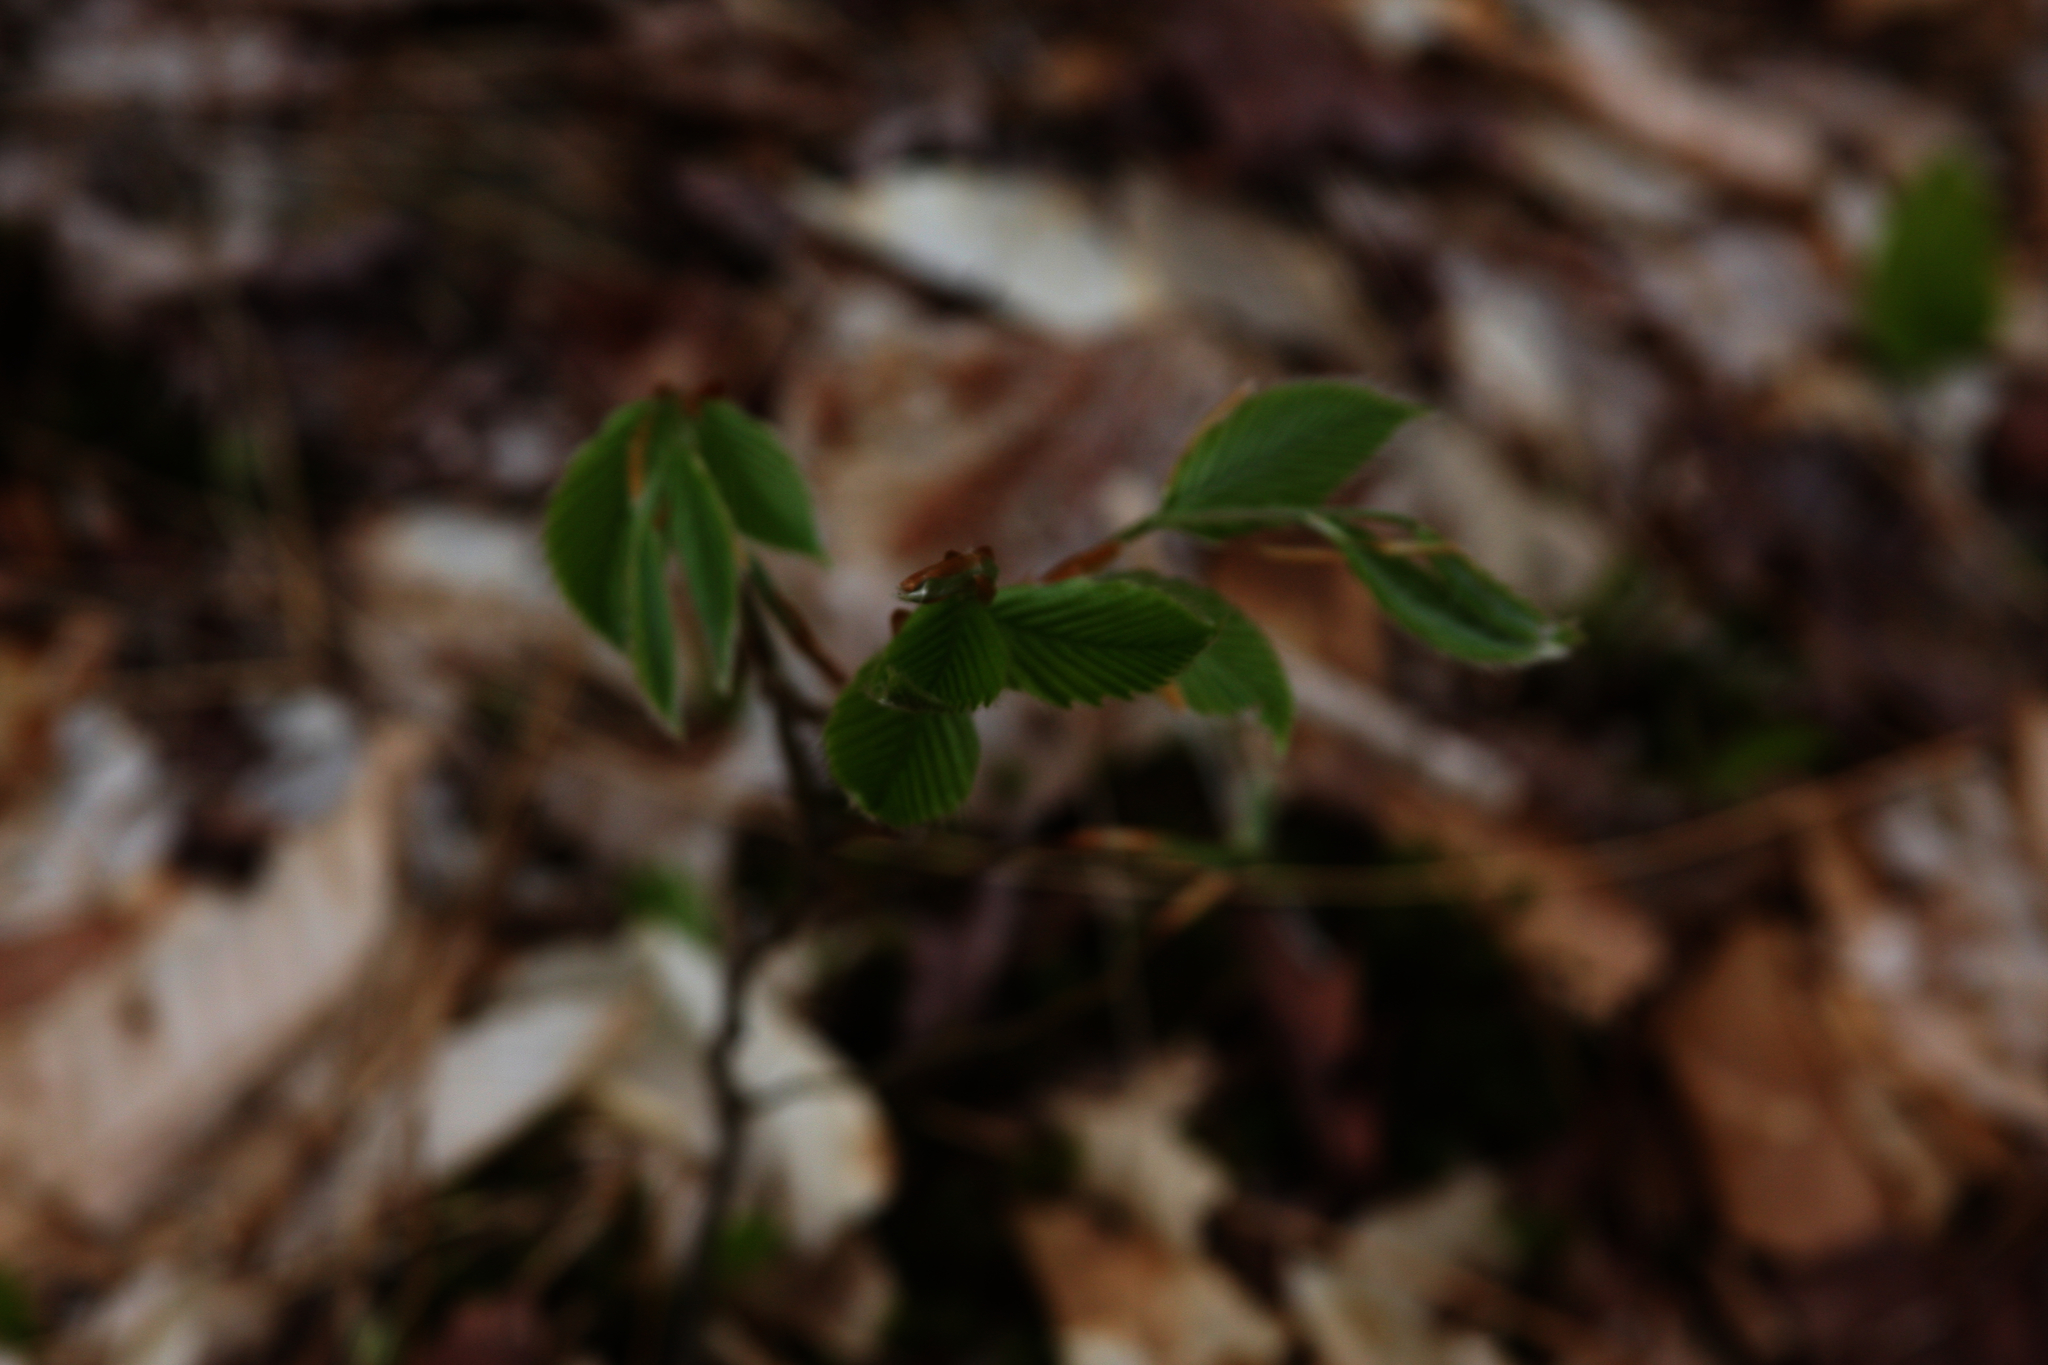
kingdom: Plantae
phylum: Tracheophyta
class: Magnoliopsida
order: Fagales
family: Fagaceae
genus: Fagus
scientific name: Fagus grandifolia
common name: American beech
